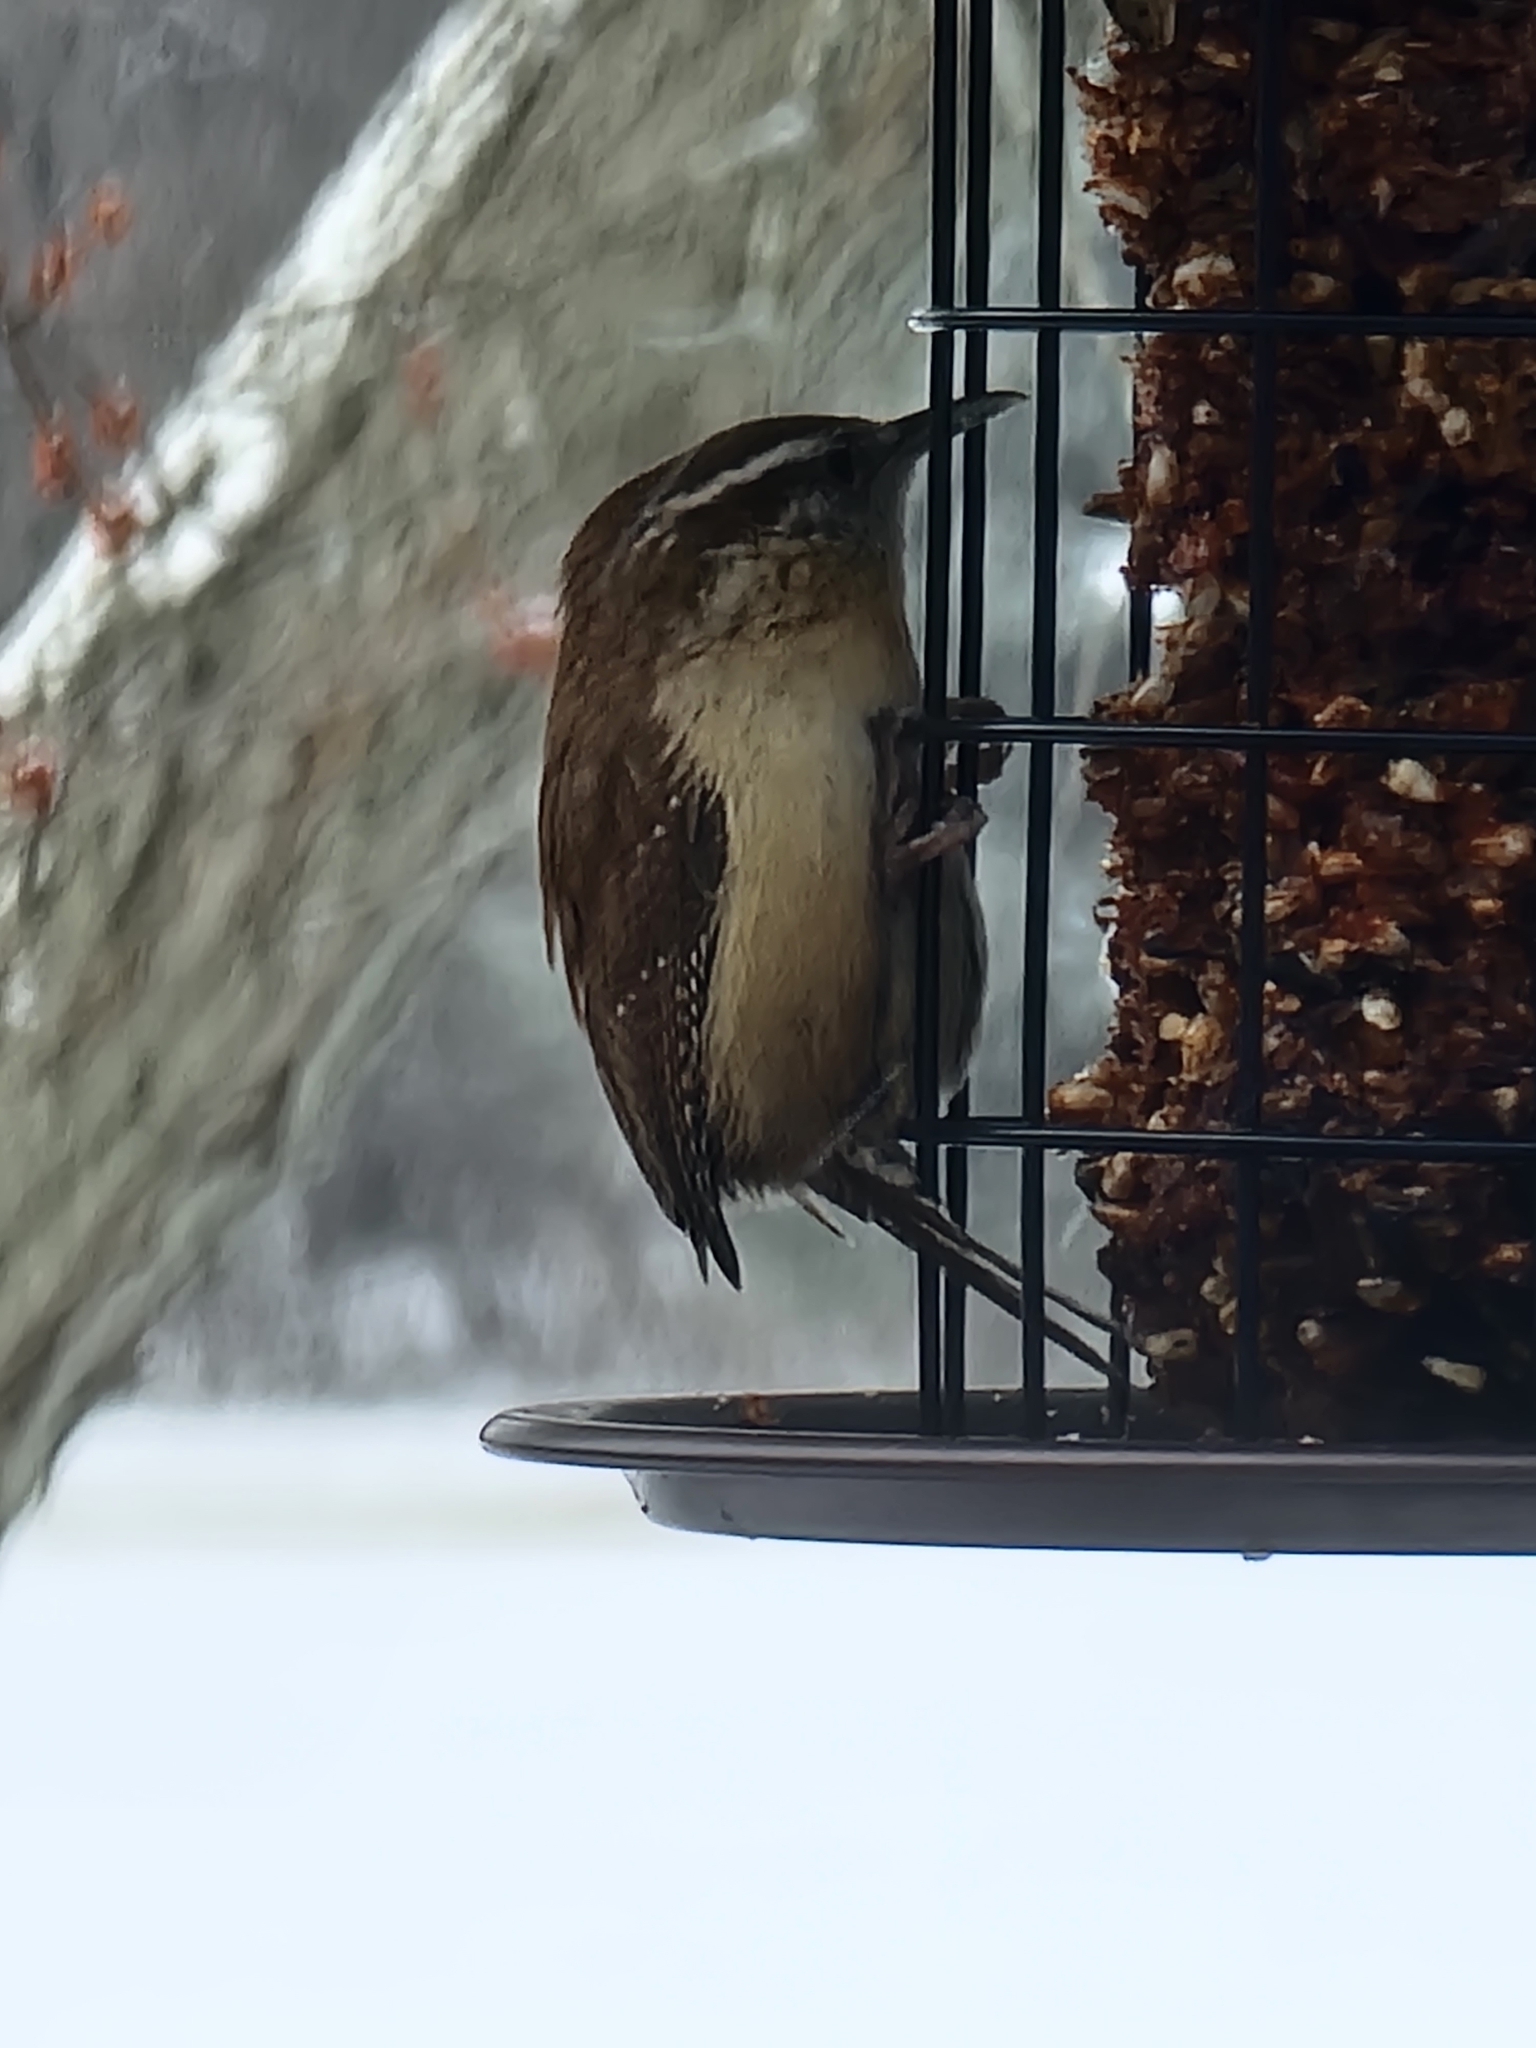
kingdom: Animalia
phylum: Chordata
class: Aves
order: Passeriformes
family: Troglodytidae
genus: Thryothorus
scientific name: Thryothorus ludovicianus
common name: Carolina wren
